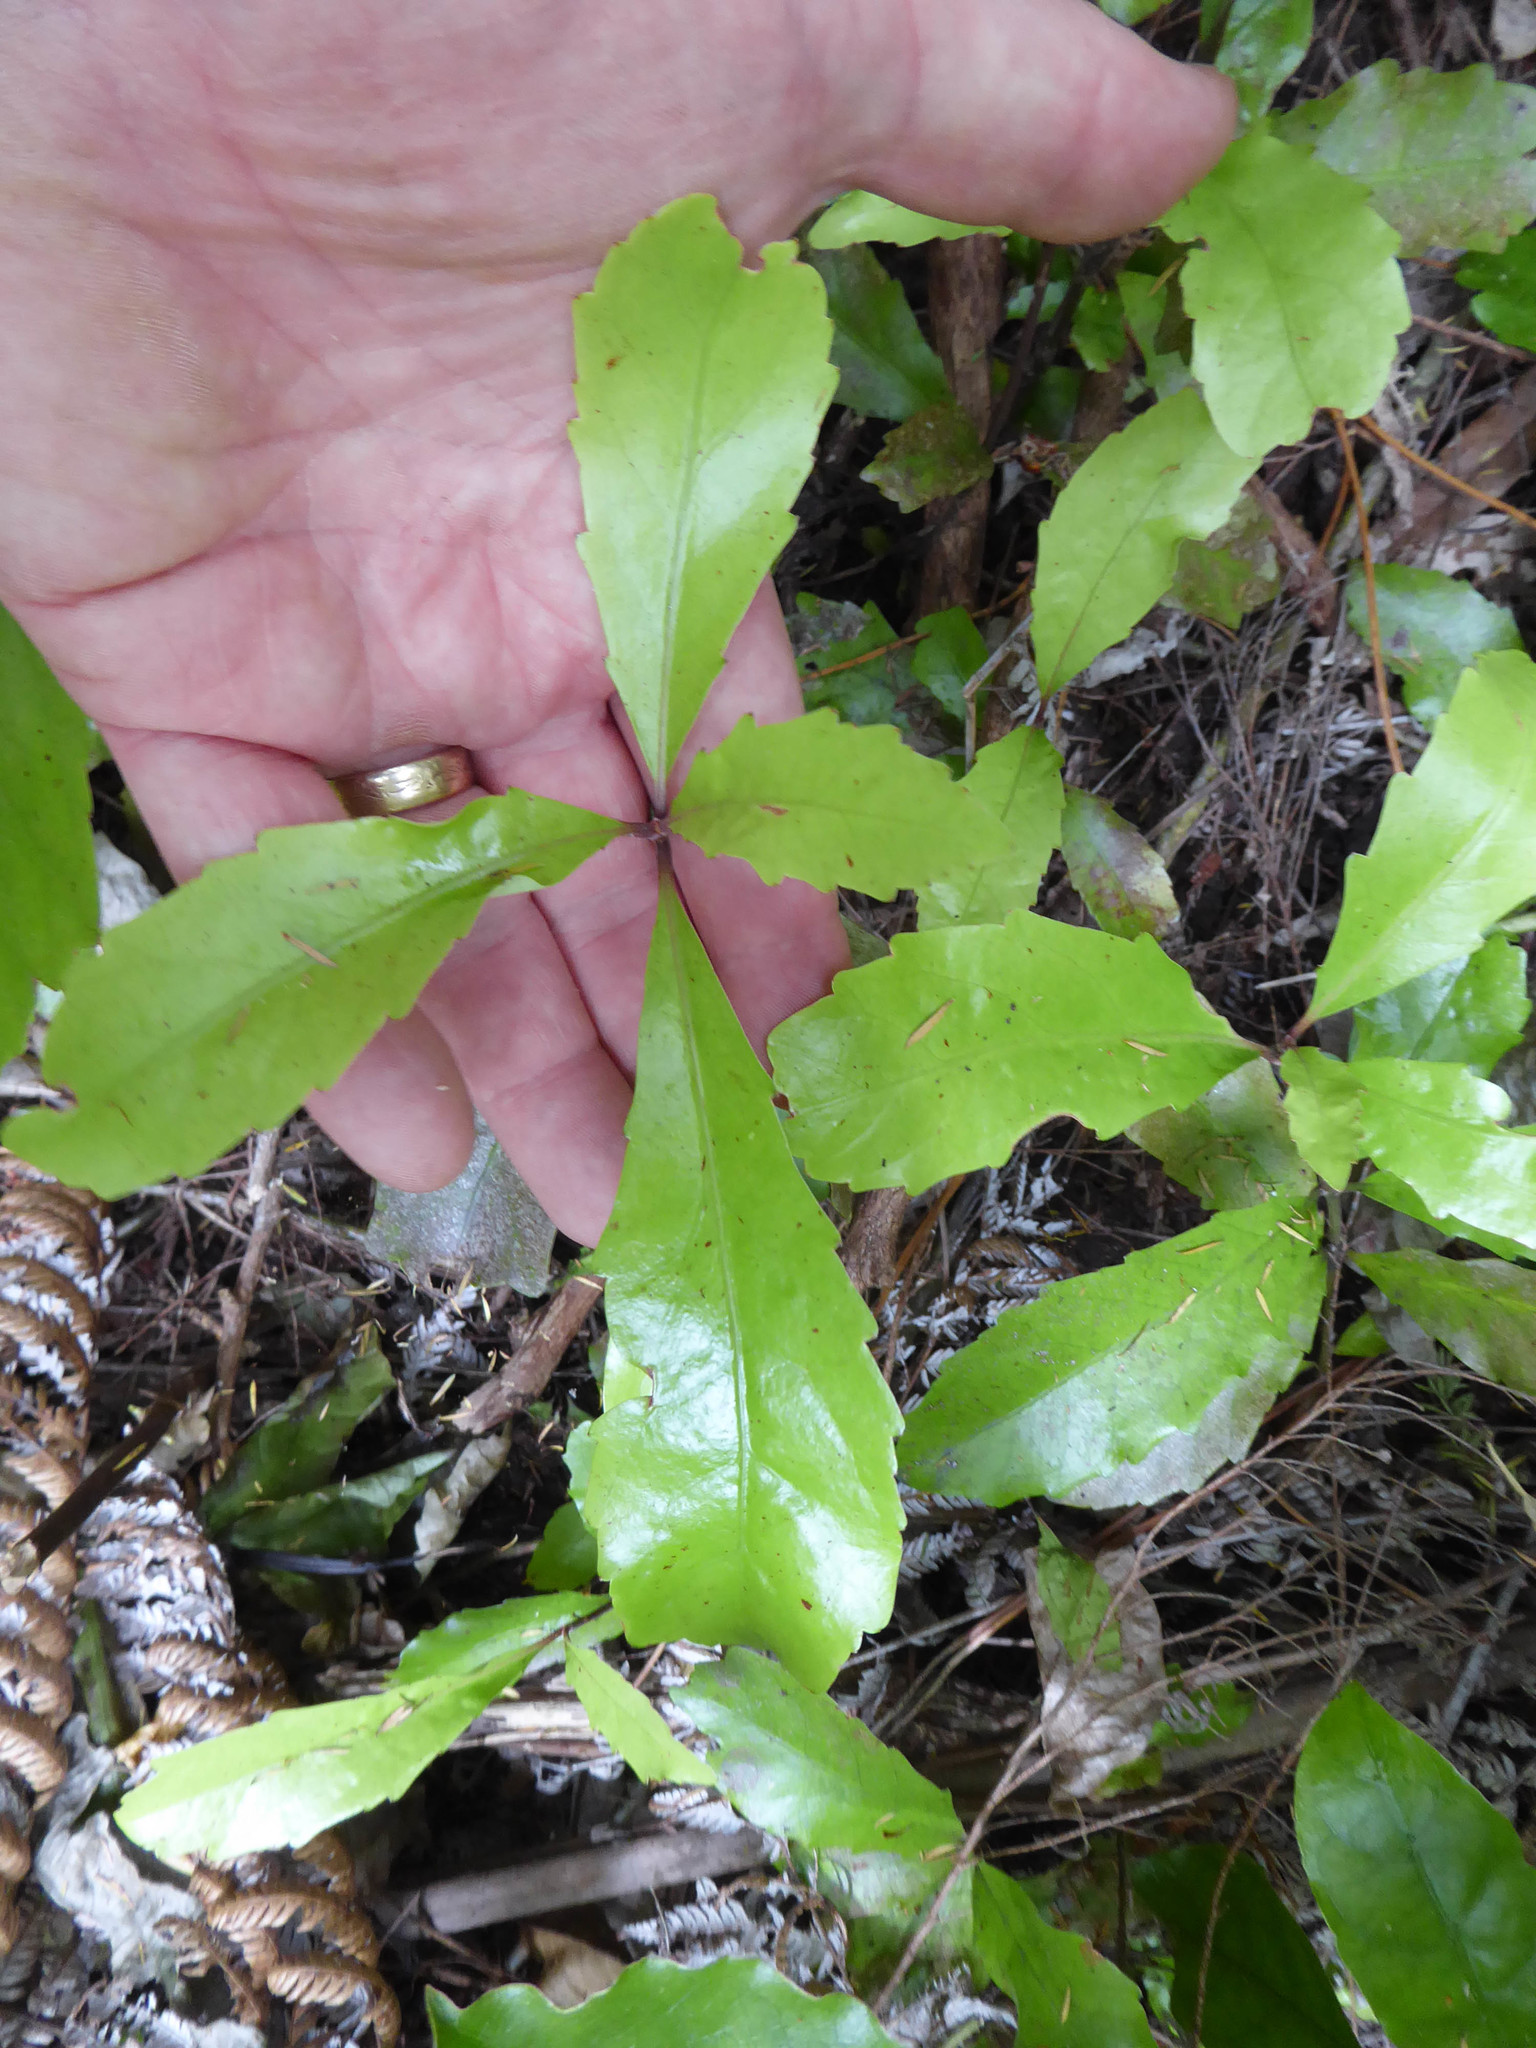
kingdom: Plantae
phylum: Tracheophyta
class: Magnoliopsida
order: Asterales
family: Alseuosmiaceae
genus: Alseuosmia
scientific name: Alseuosmia macrophylla
